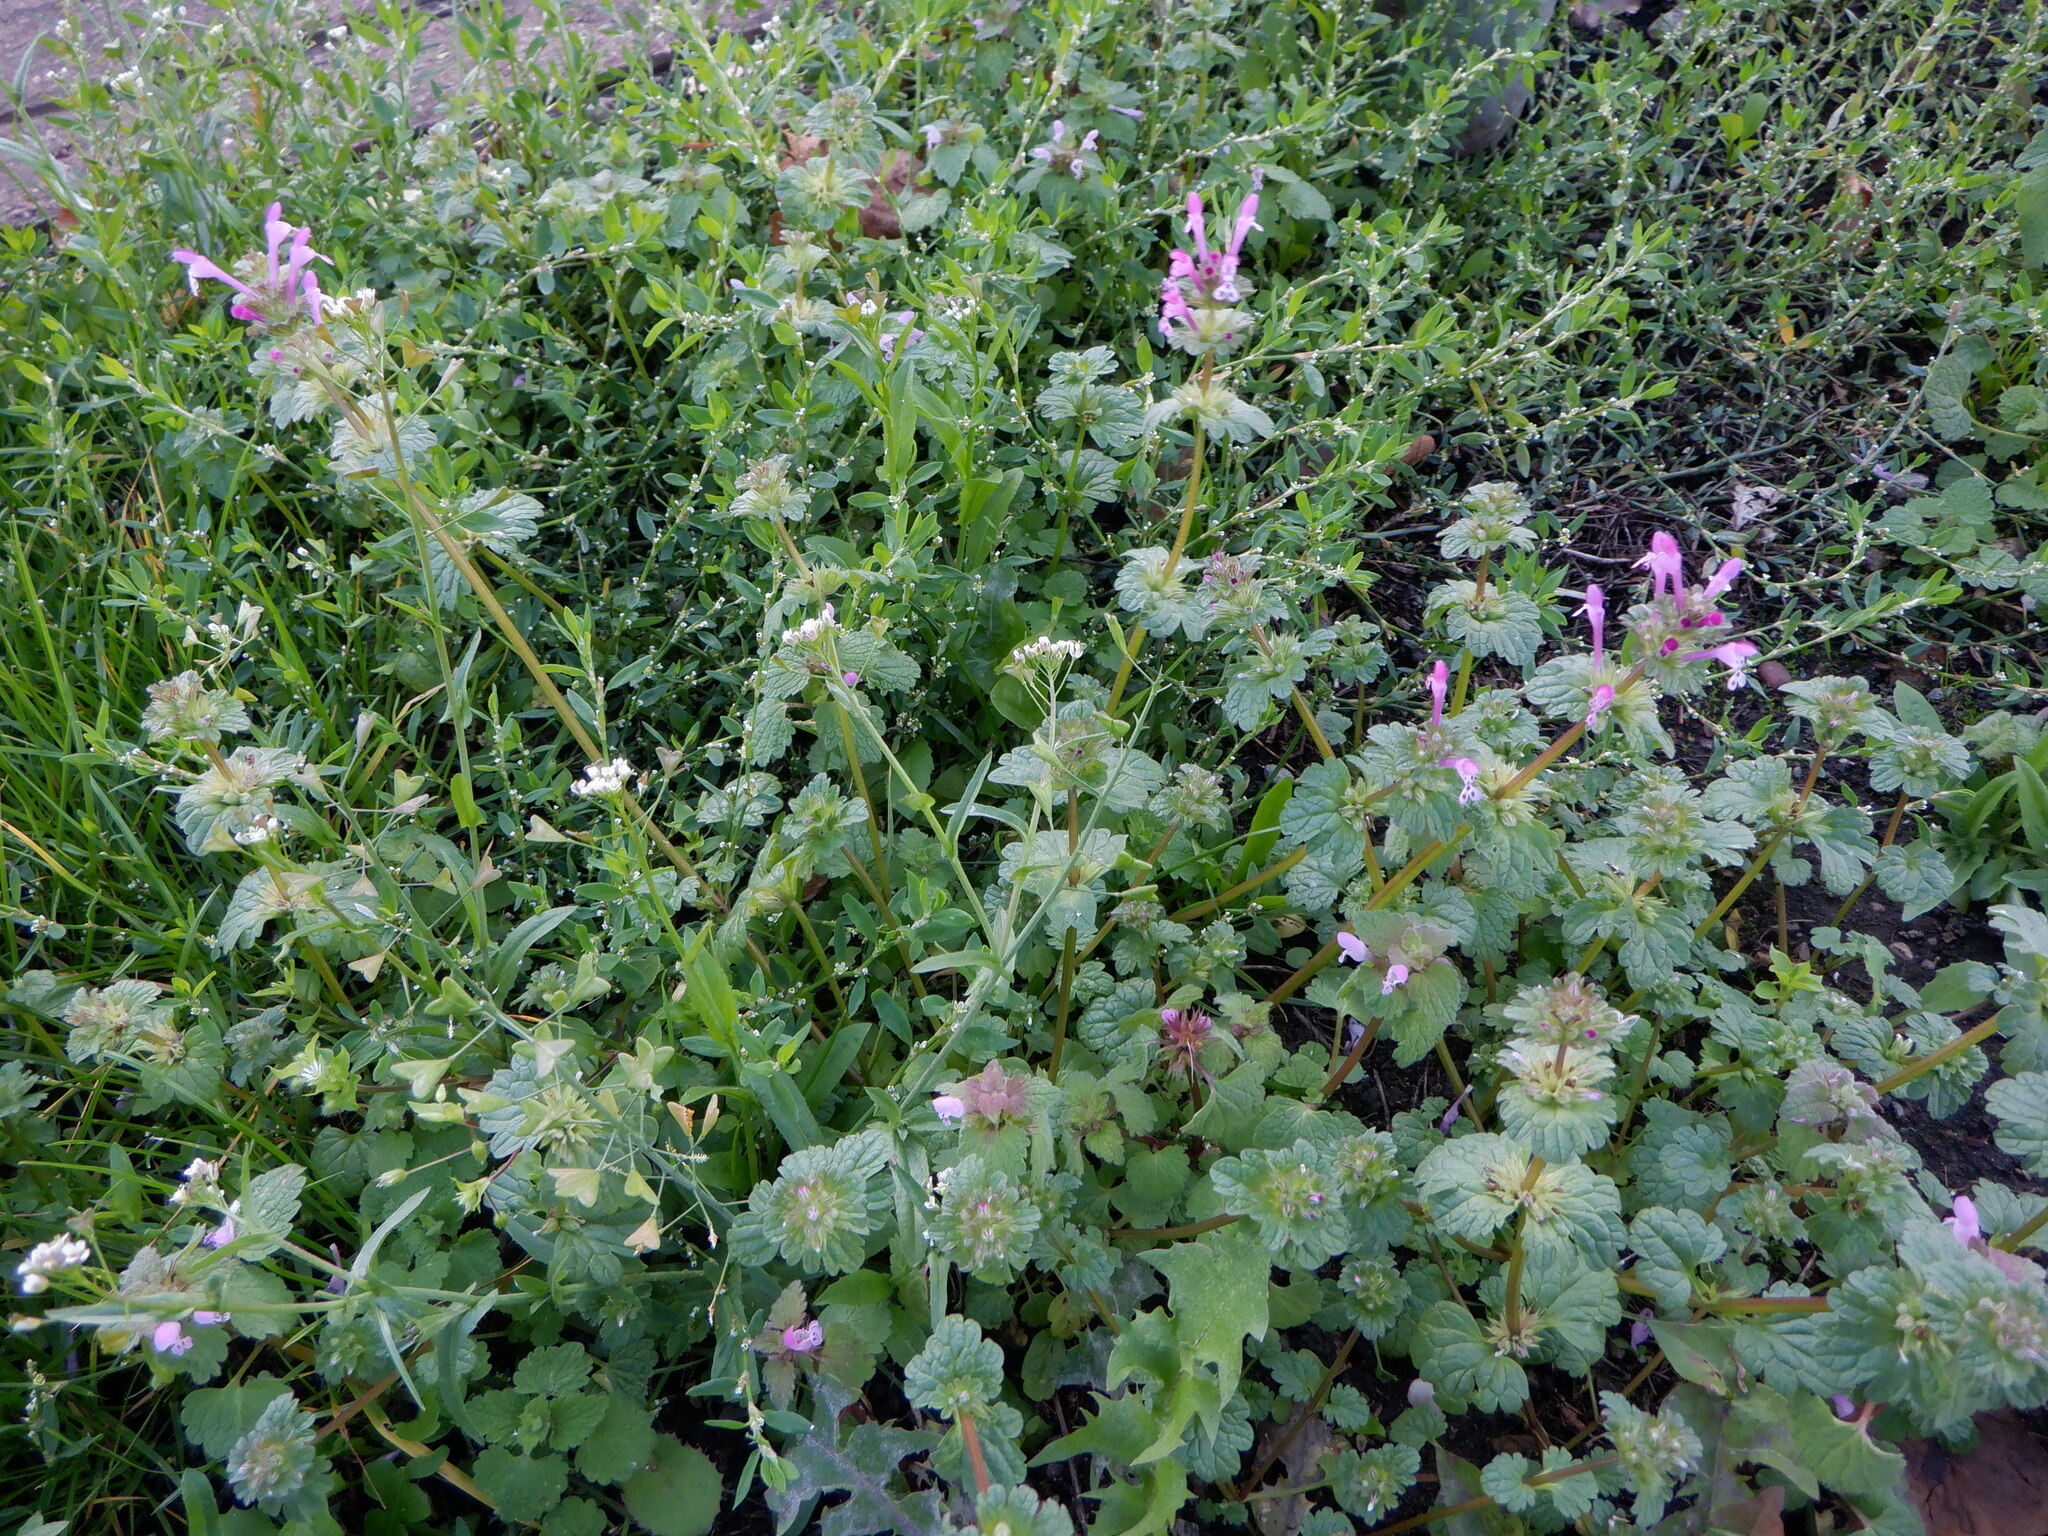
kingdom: Plantae
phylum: Tracheophyta
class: Magnoliopsida
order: Lamiales
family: Lamiaceae
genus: Lamium
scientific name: Lamium amplexicaule
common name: Henbit dead-nettle
